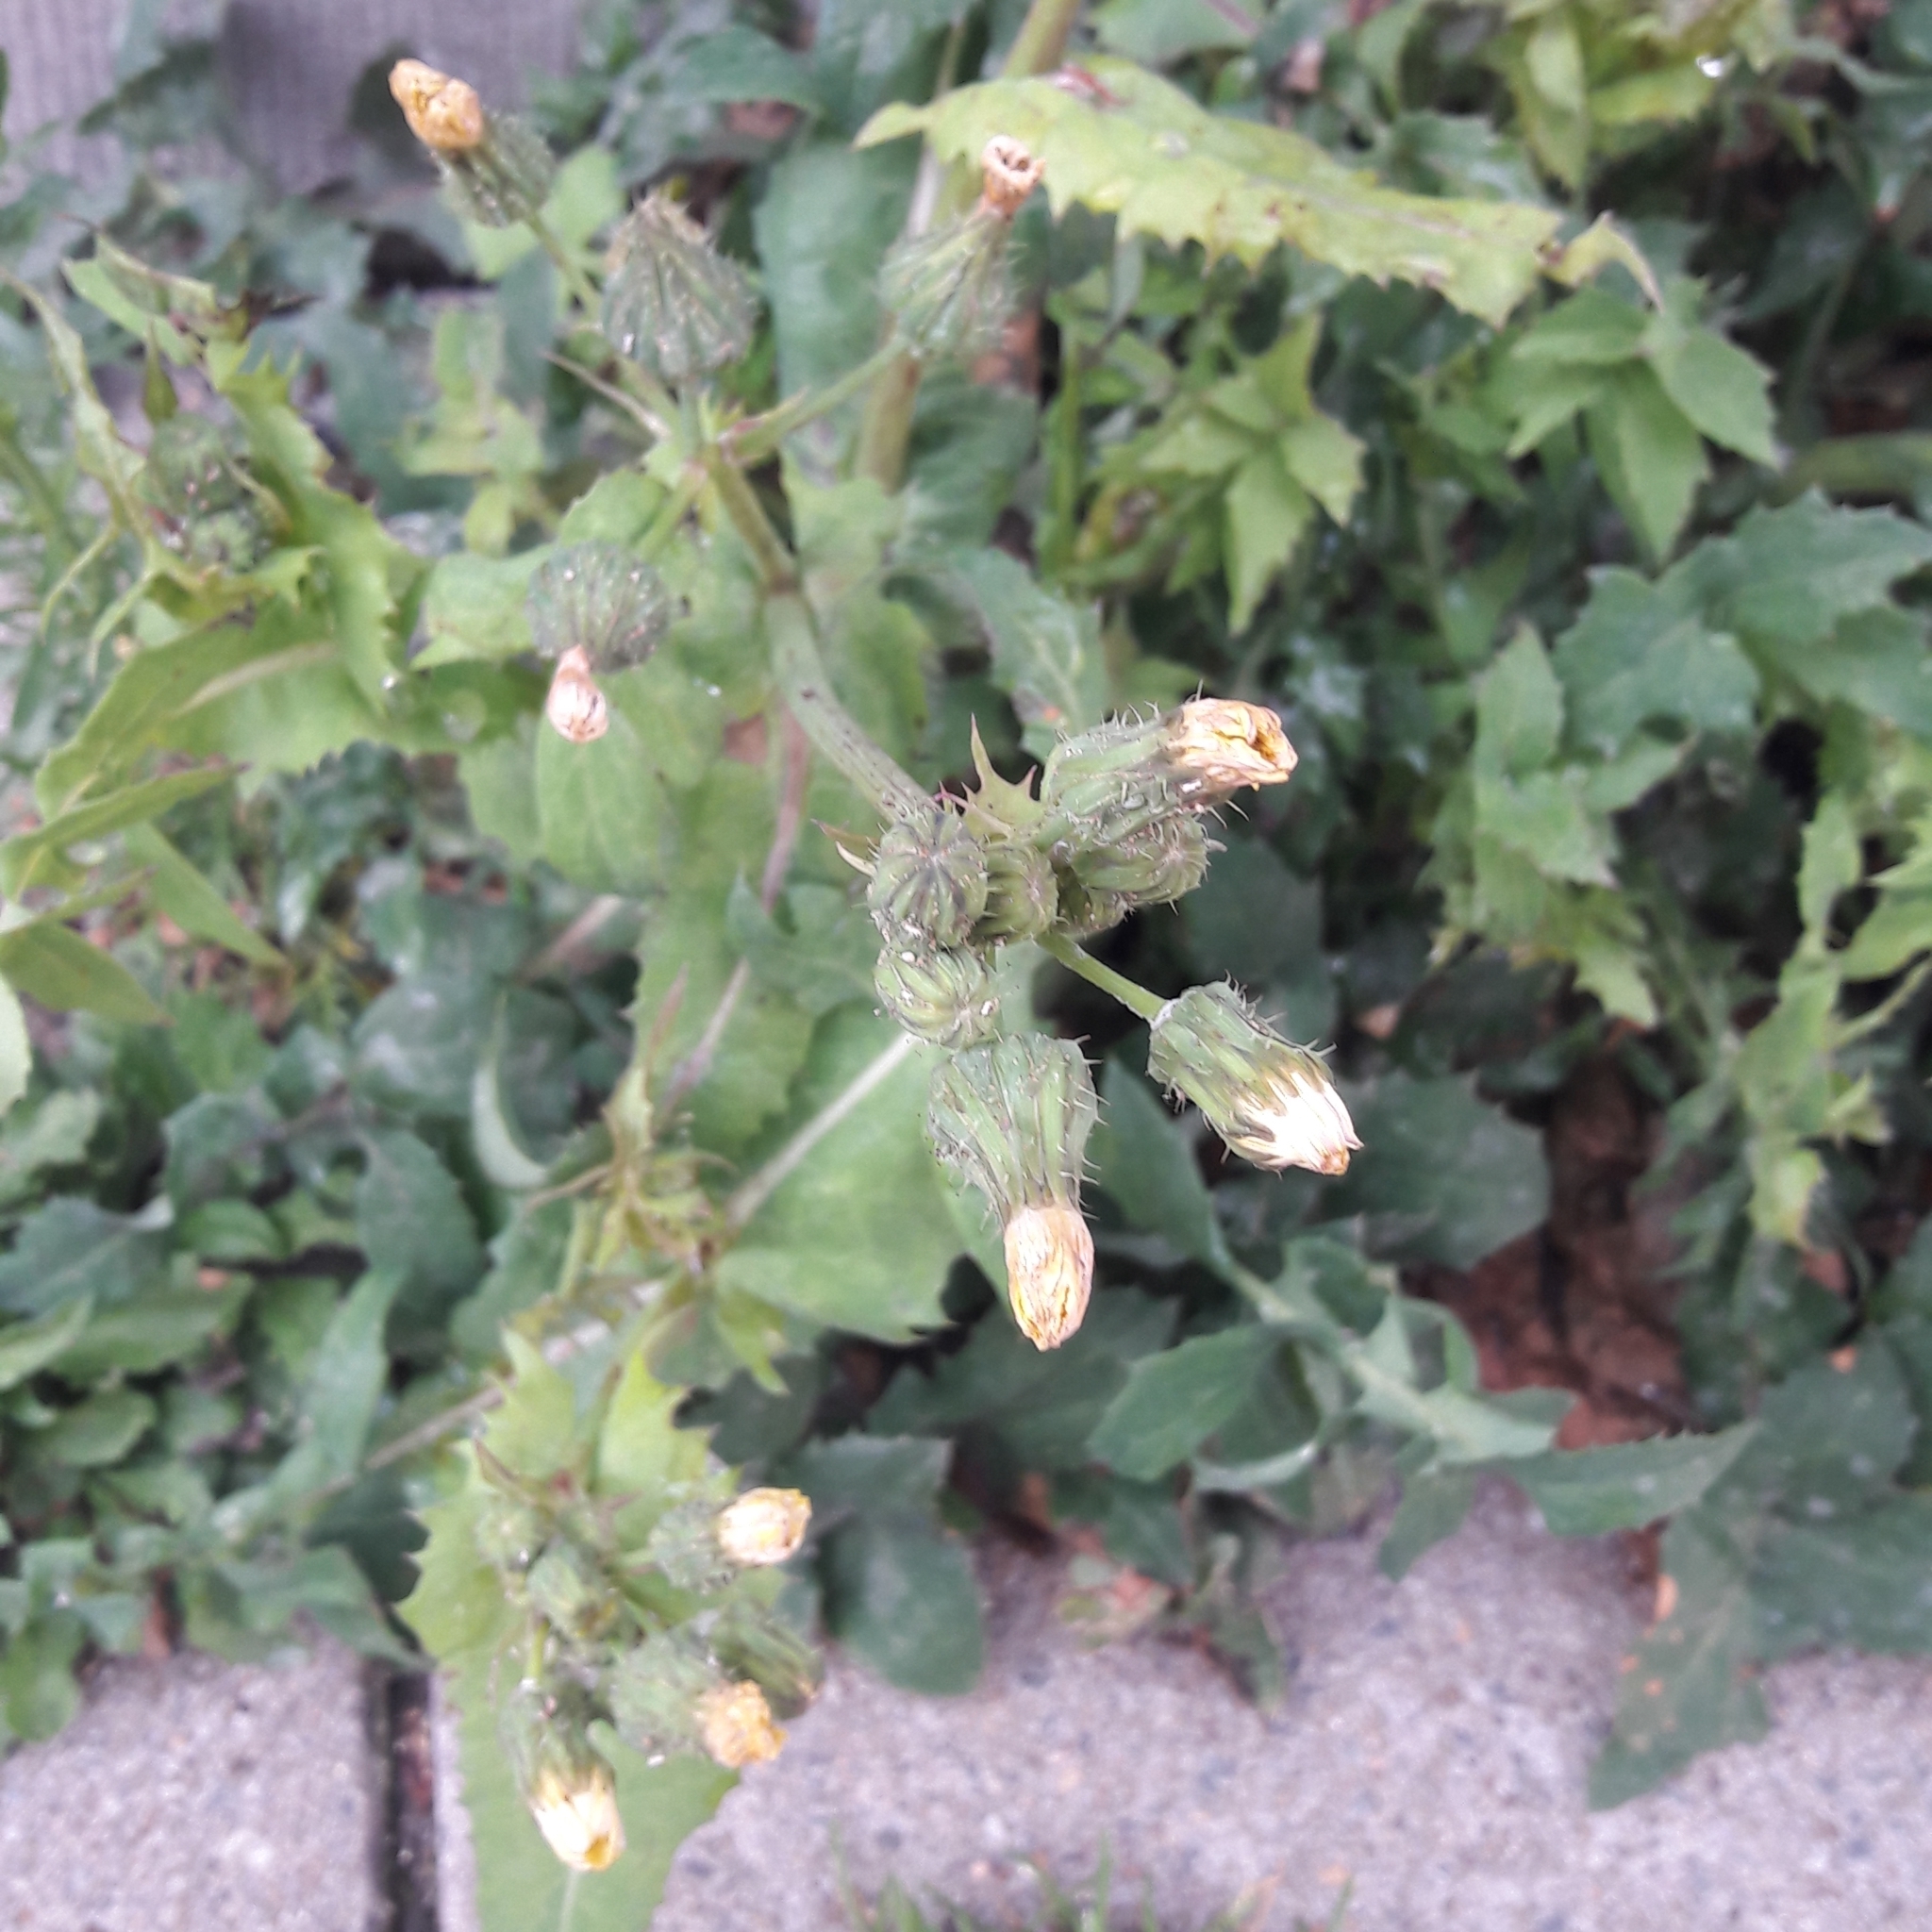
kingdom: Plantae
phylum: Tracheophyta
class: Magnoliopsida
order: Asterales
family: Asteraceae
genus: Sonchus
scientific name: Sonchus oleraceus
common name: Common sowthistle
